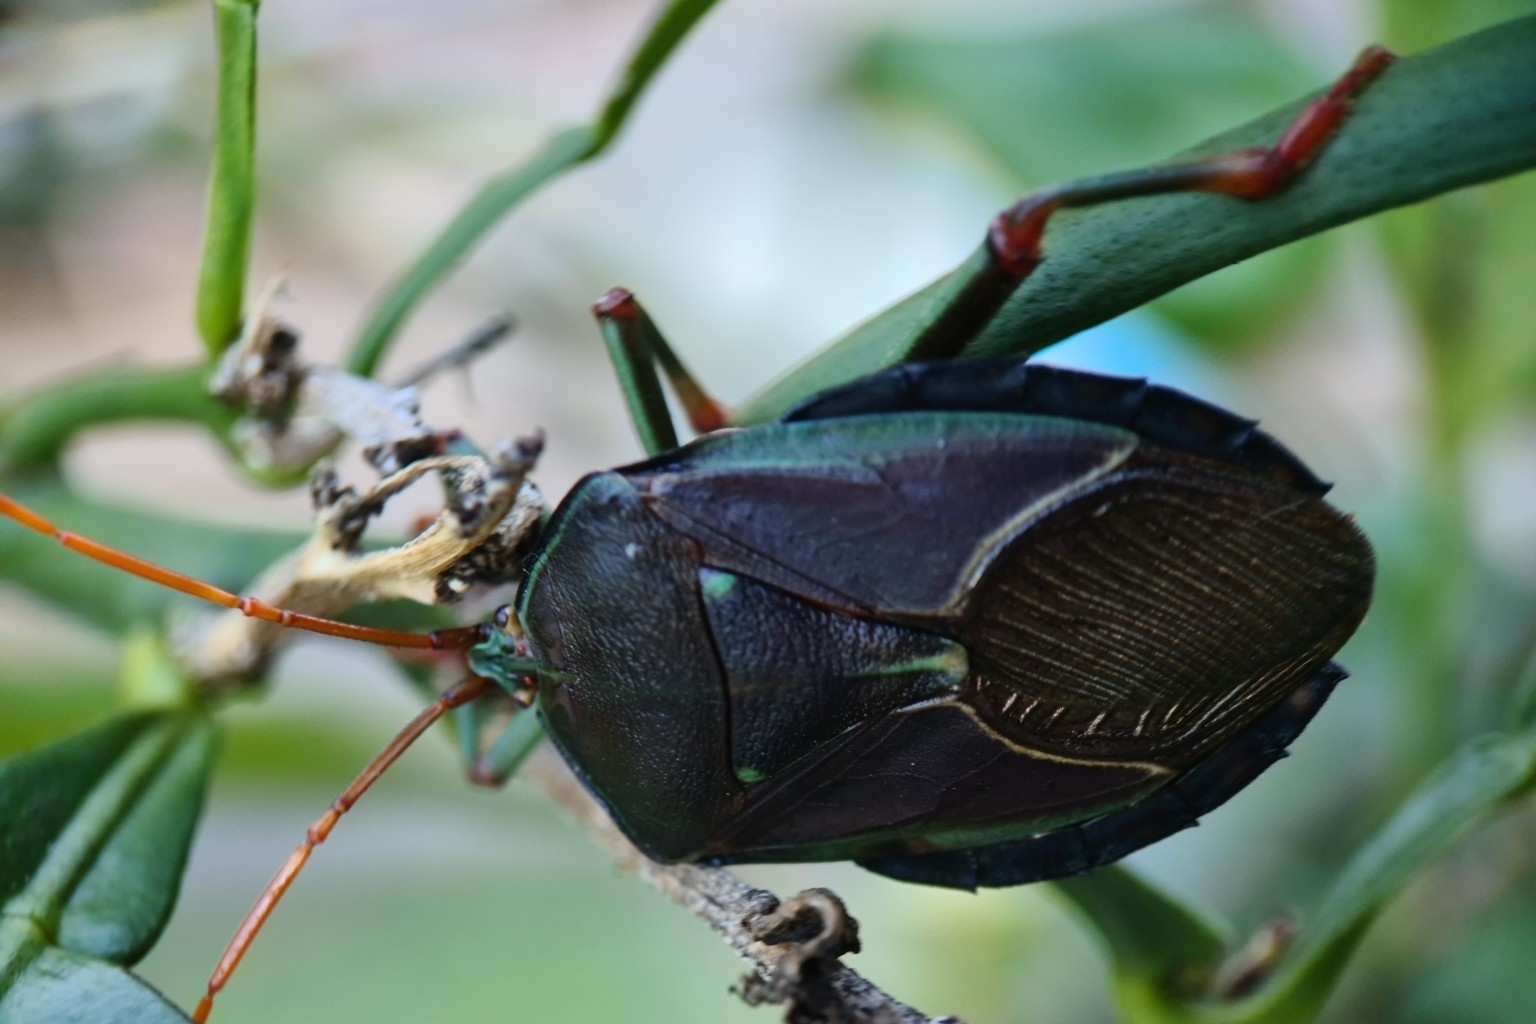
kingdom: Animalia
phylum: Arthropoda
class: Insecta
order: Hemiptera
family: Tessaratomidae
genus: Musgraveia
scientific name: Musgraveia sulciventris
